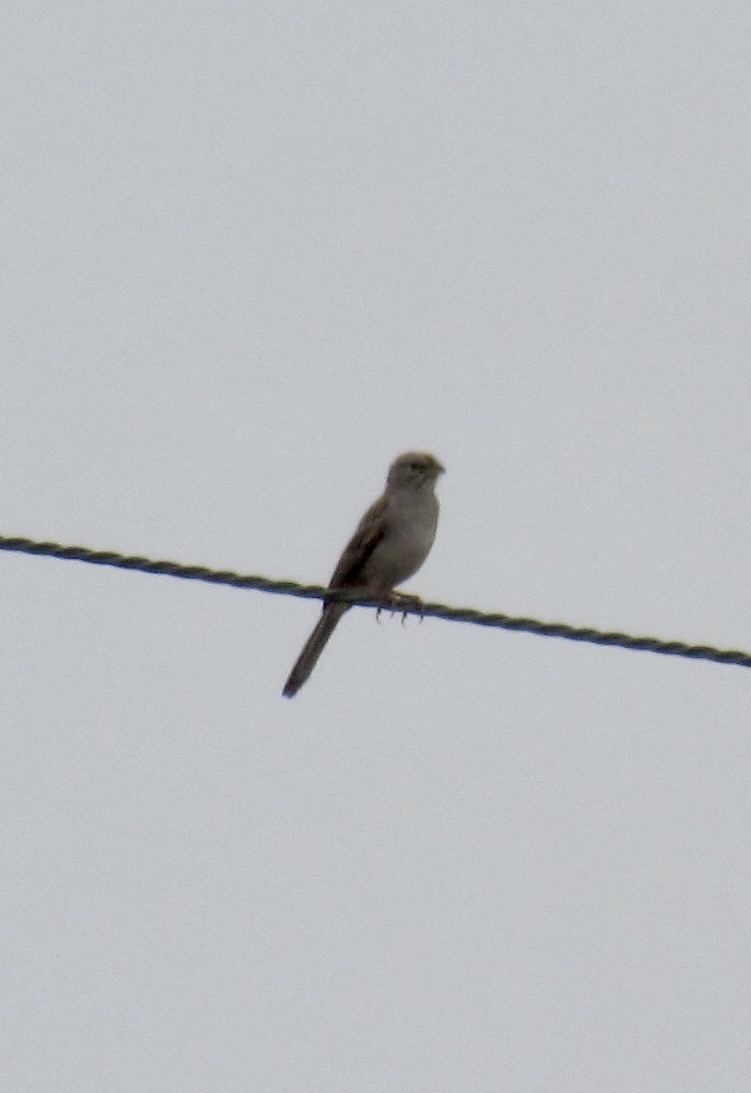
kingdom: Animalia
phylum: Chordata
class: Aves
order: Passeriformes
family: Passerellidae
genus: Peucaea
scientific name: Peucaea carpalis
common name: Rufous-winged sparrow
